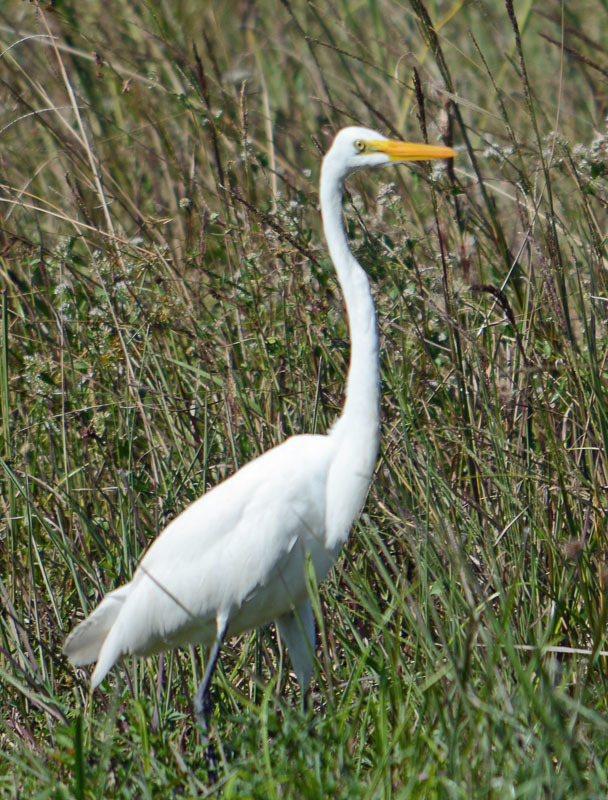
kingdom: Animalia
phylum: Chordata
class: Aves
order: Pelecaniformes
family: Ardeidae
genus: Ardea
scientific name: Ardea alba
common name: Great egret
